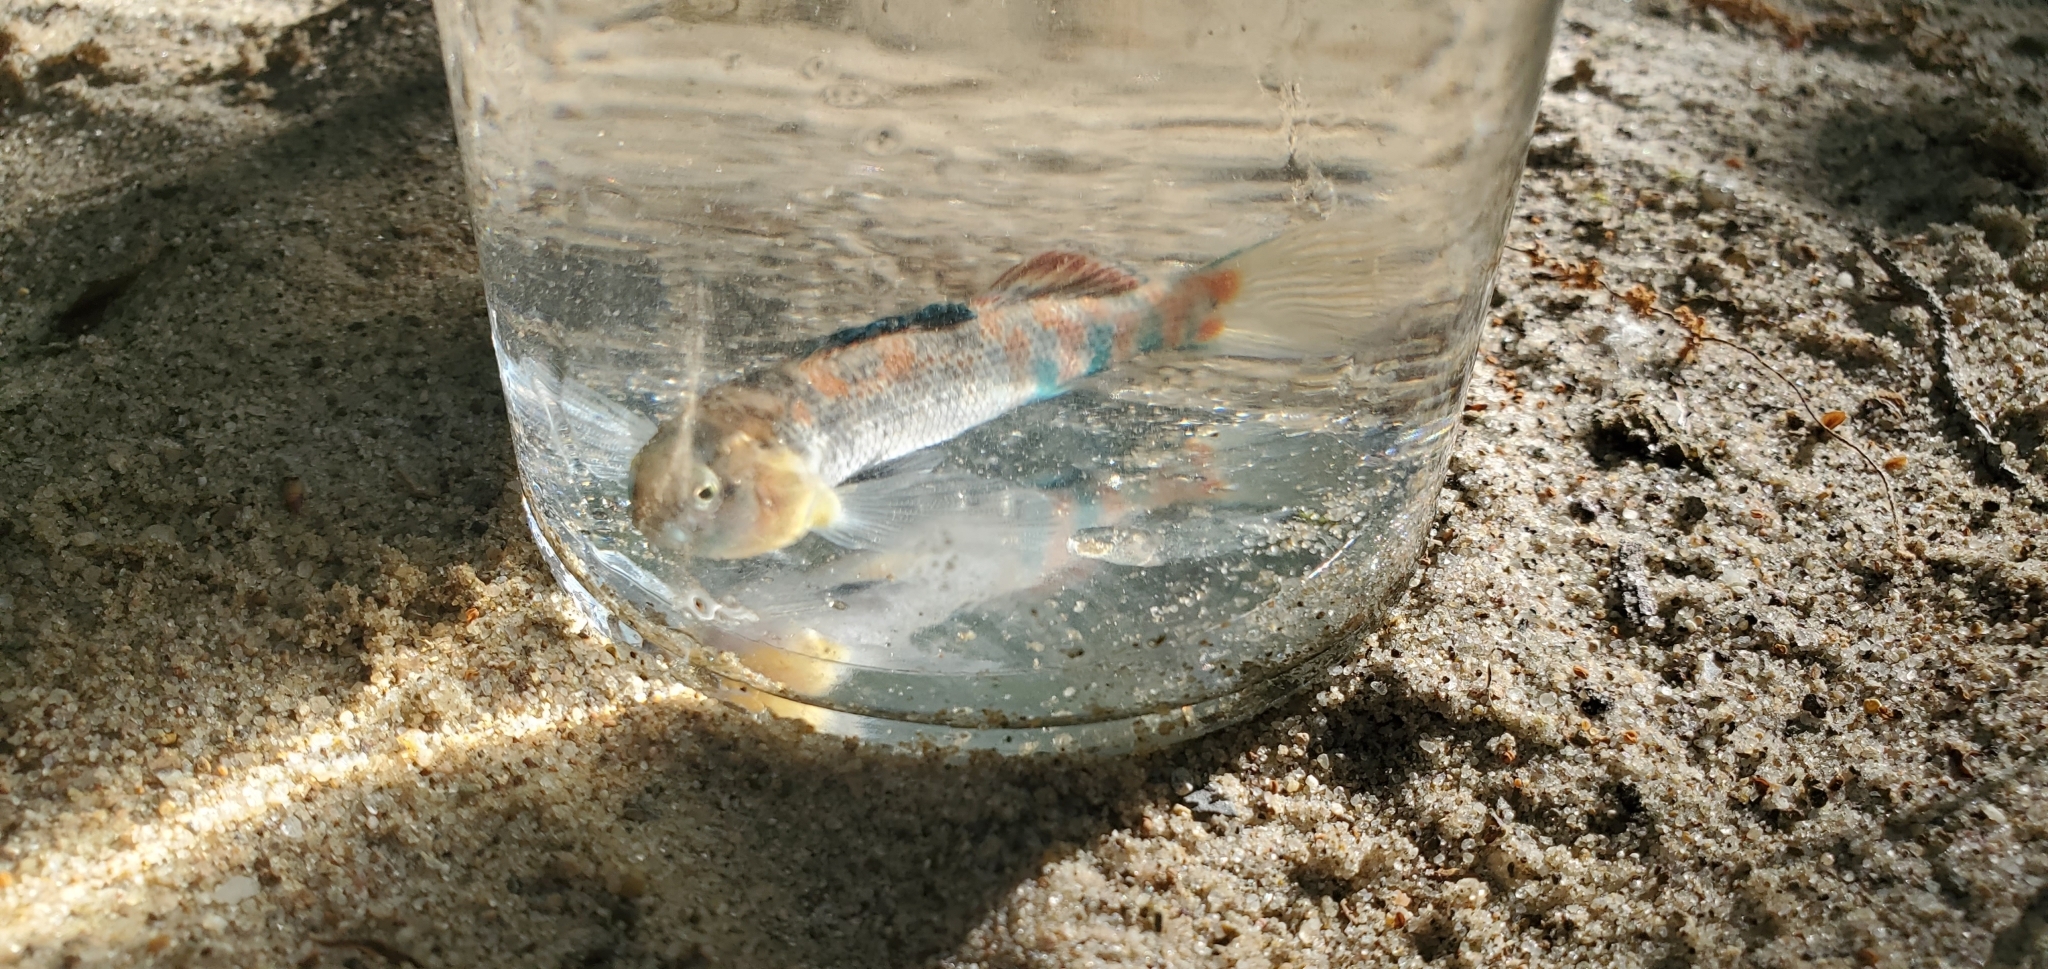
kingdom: Animalia
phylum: Chordata
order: Perciformes
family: Percidae
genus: Etheostoma
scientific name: Etheostoma spectabile
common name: Orangethroat darter
